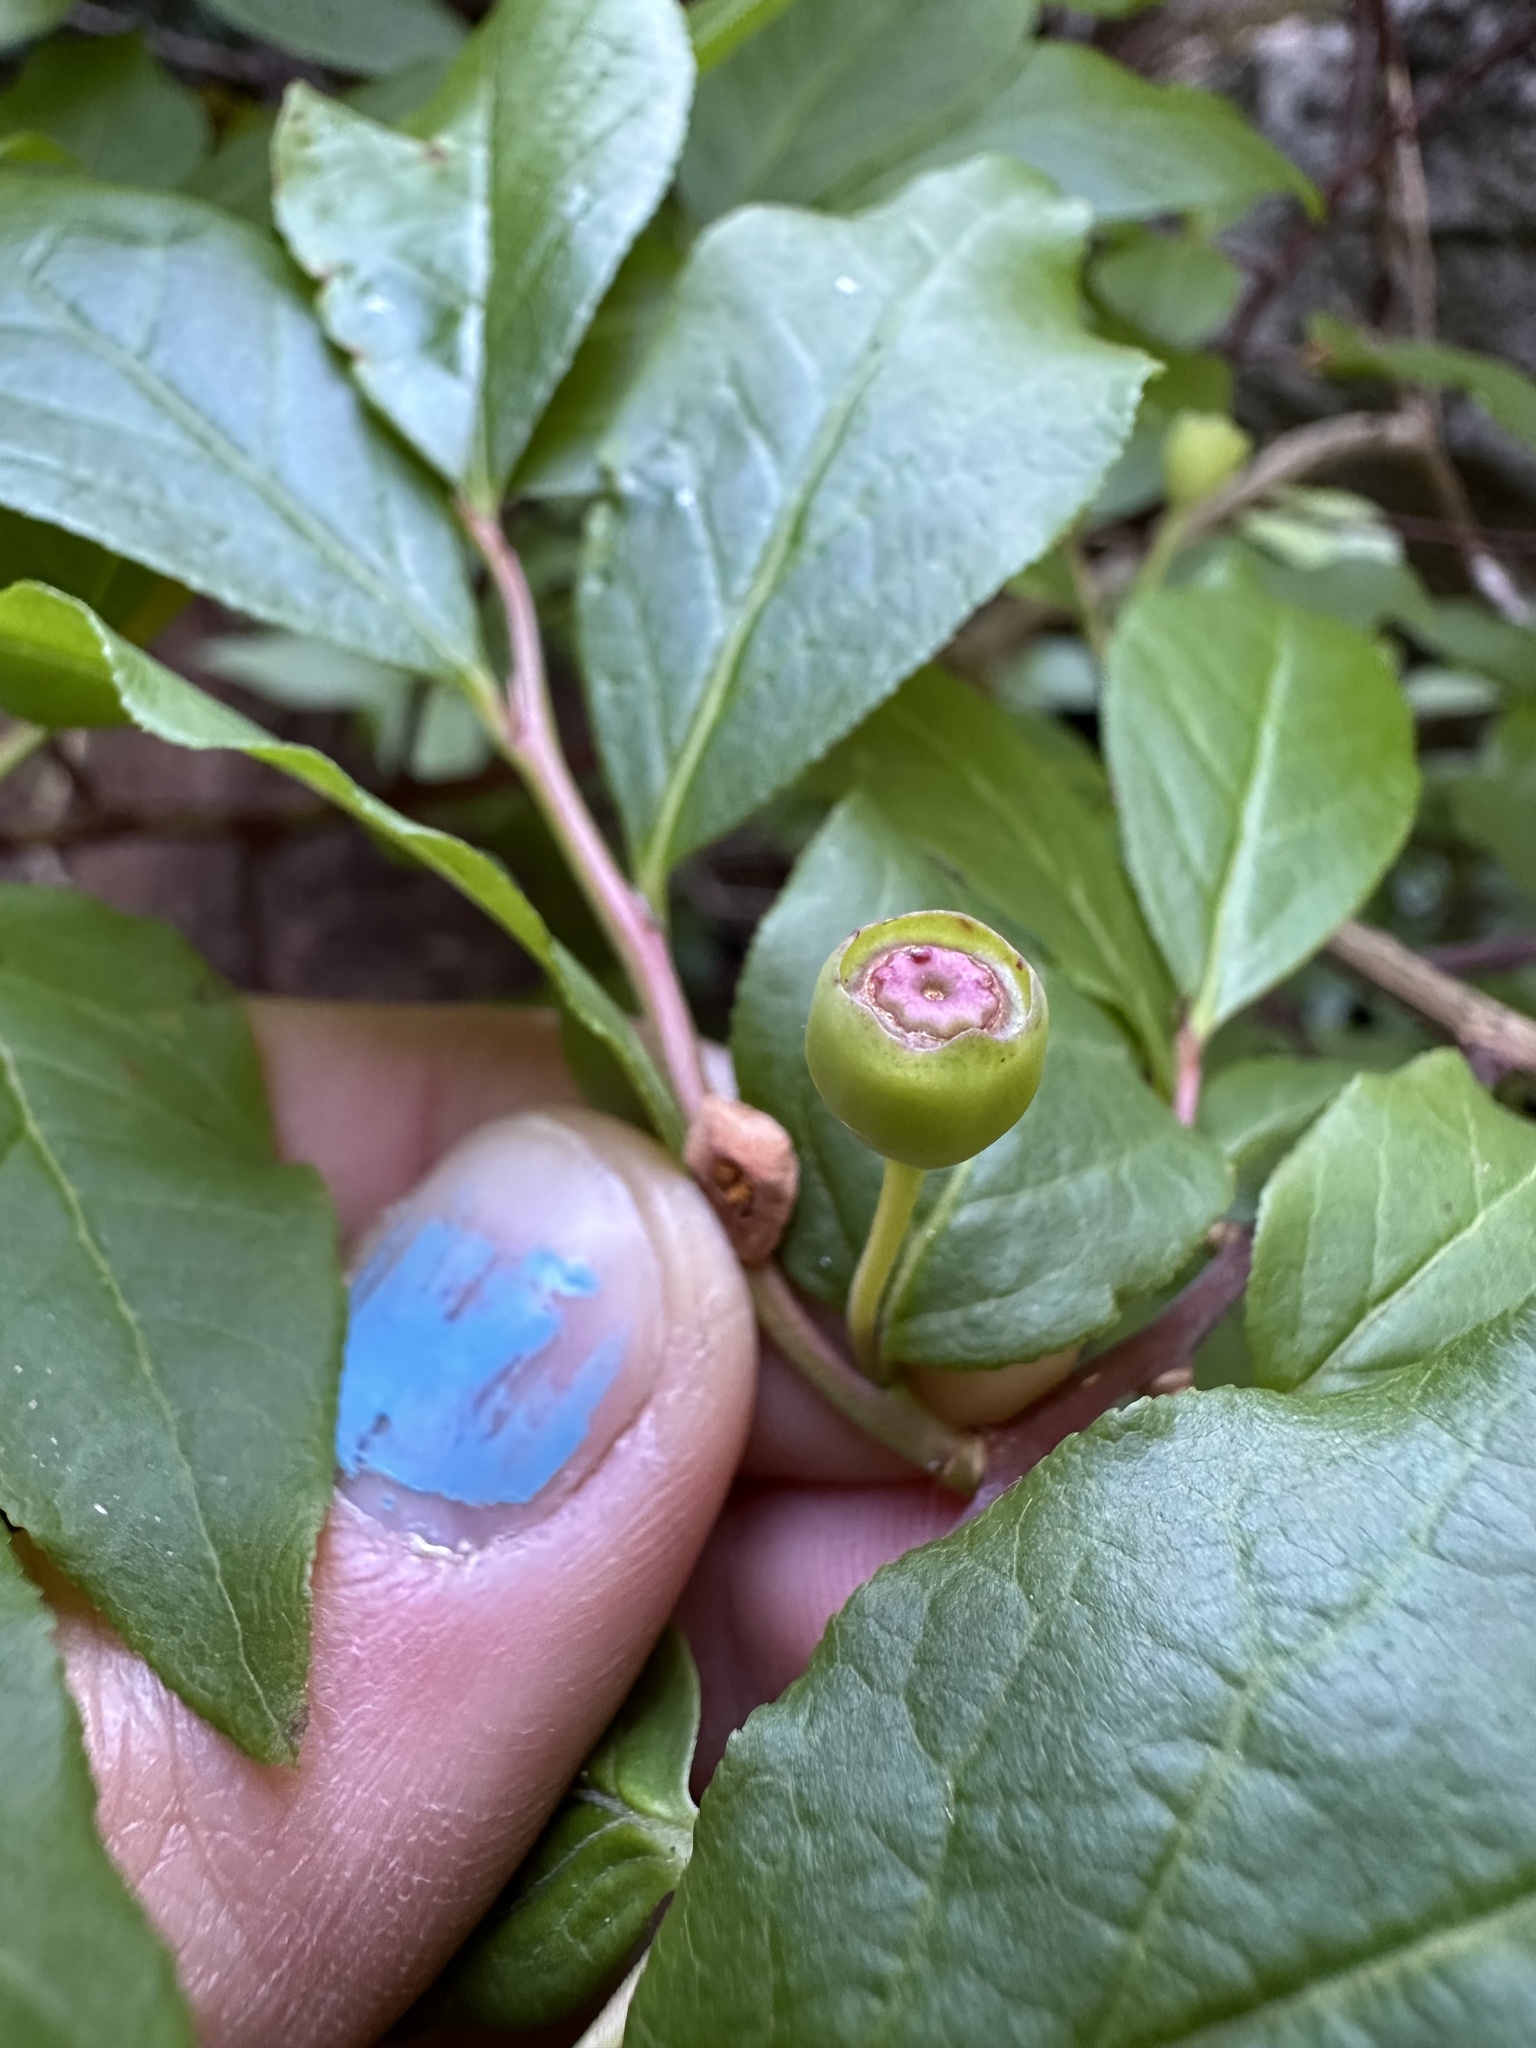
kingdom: Plantae
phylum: Tracheophyta
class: Magnoliopsida
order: Ericales
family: Ericaceae
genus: Vaccinium
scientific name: Vaccinium membranaceum
